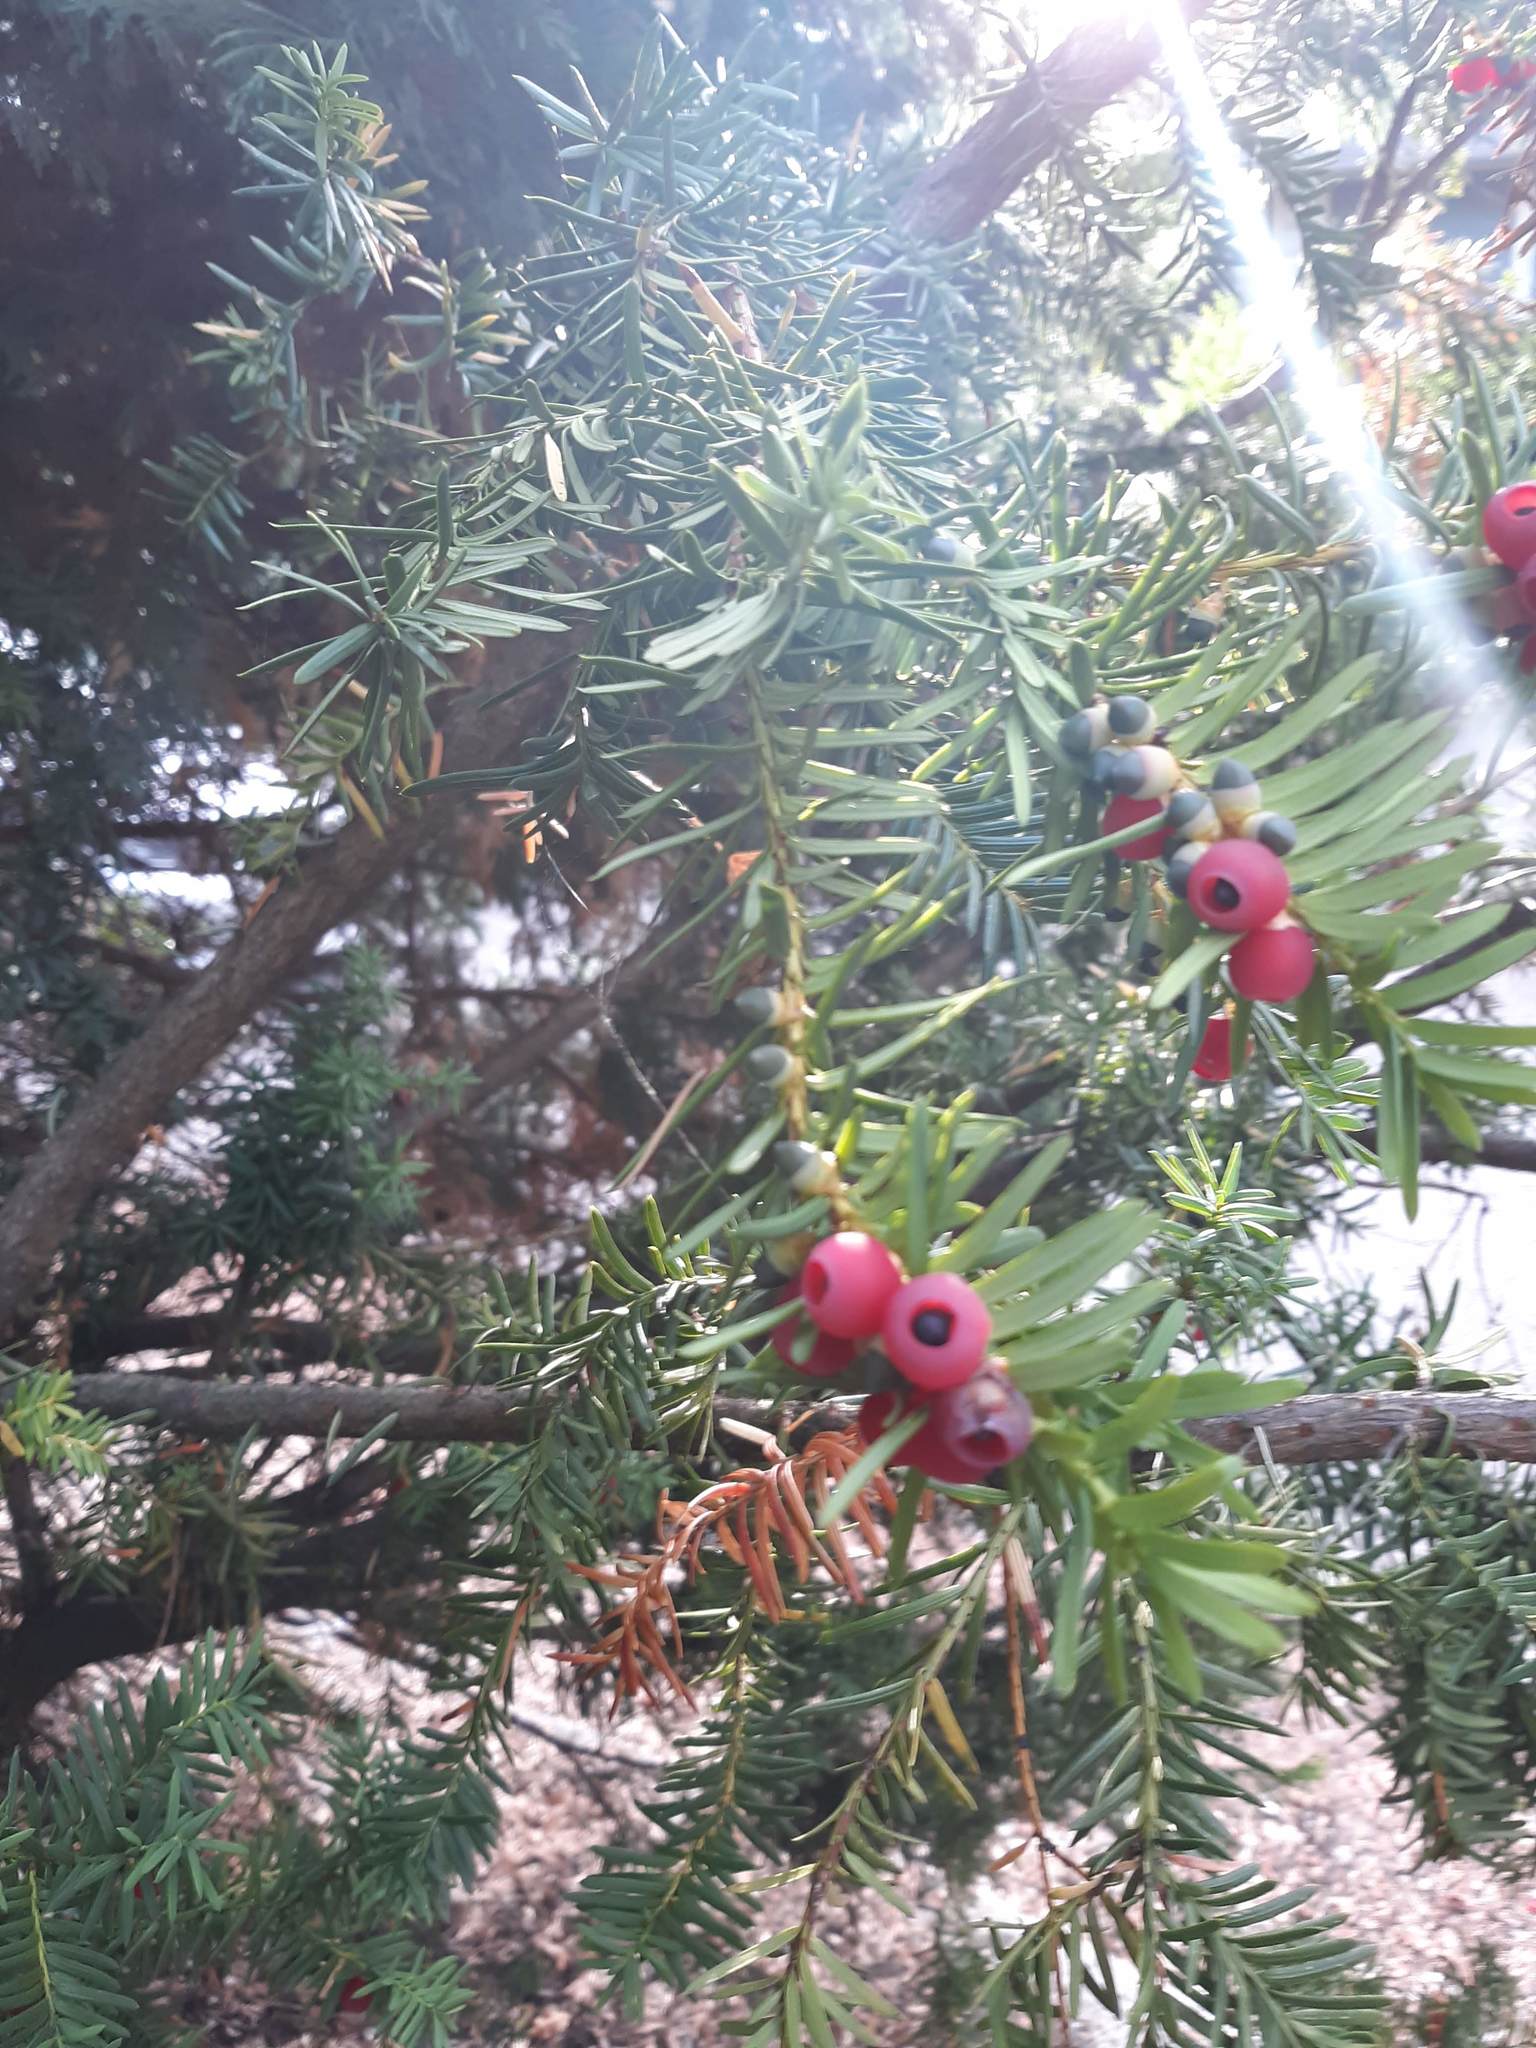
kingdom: Plantae
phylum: Tracheophyta
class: Pinopsida
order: Pinales
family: Taxaceae
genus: Taxus
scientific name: Taxus brevifolia
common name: Pacific yew
